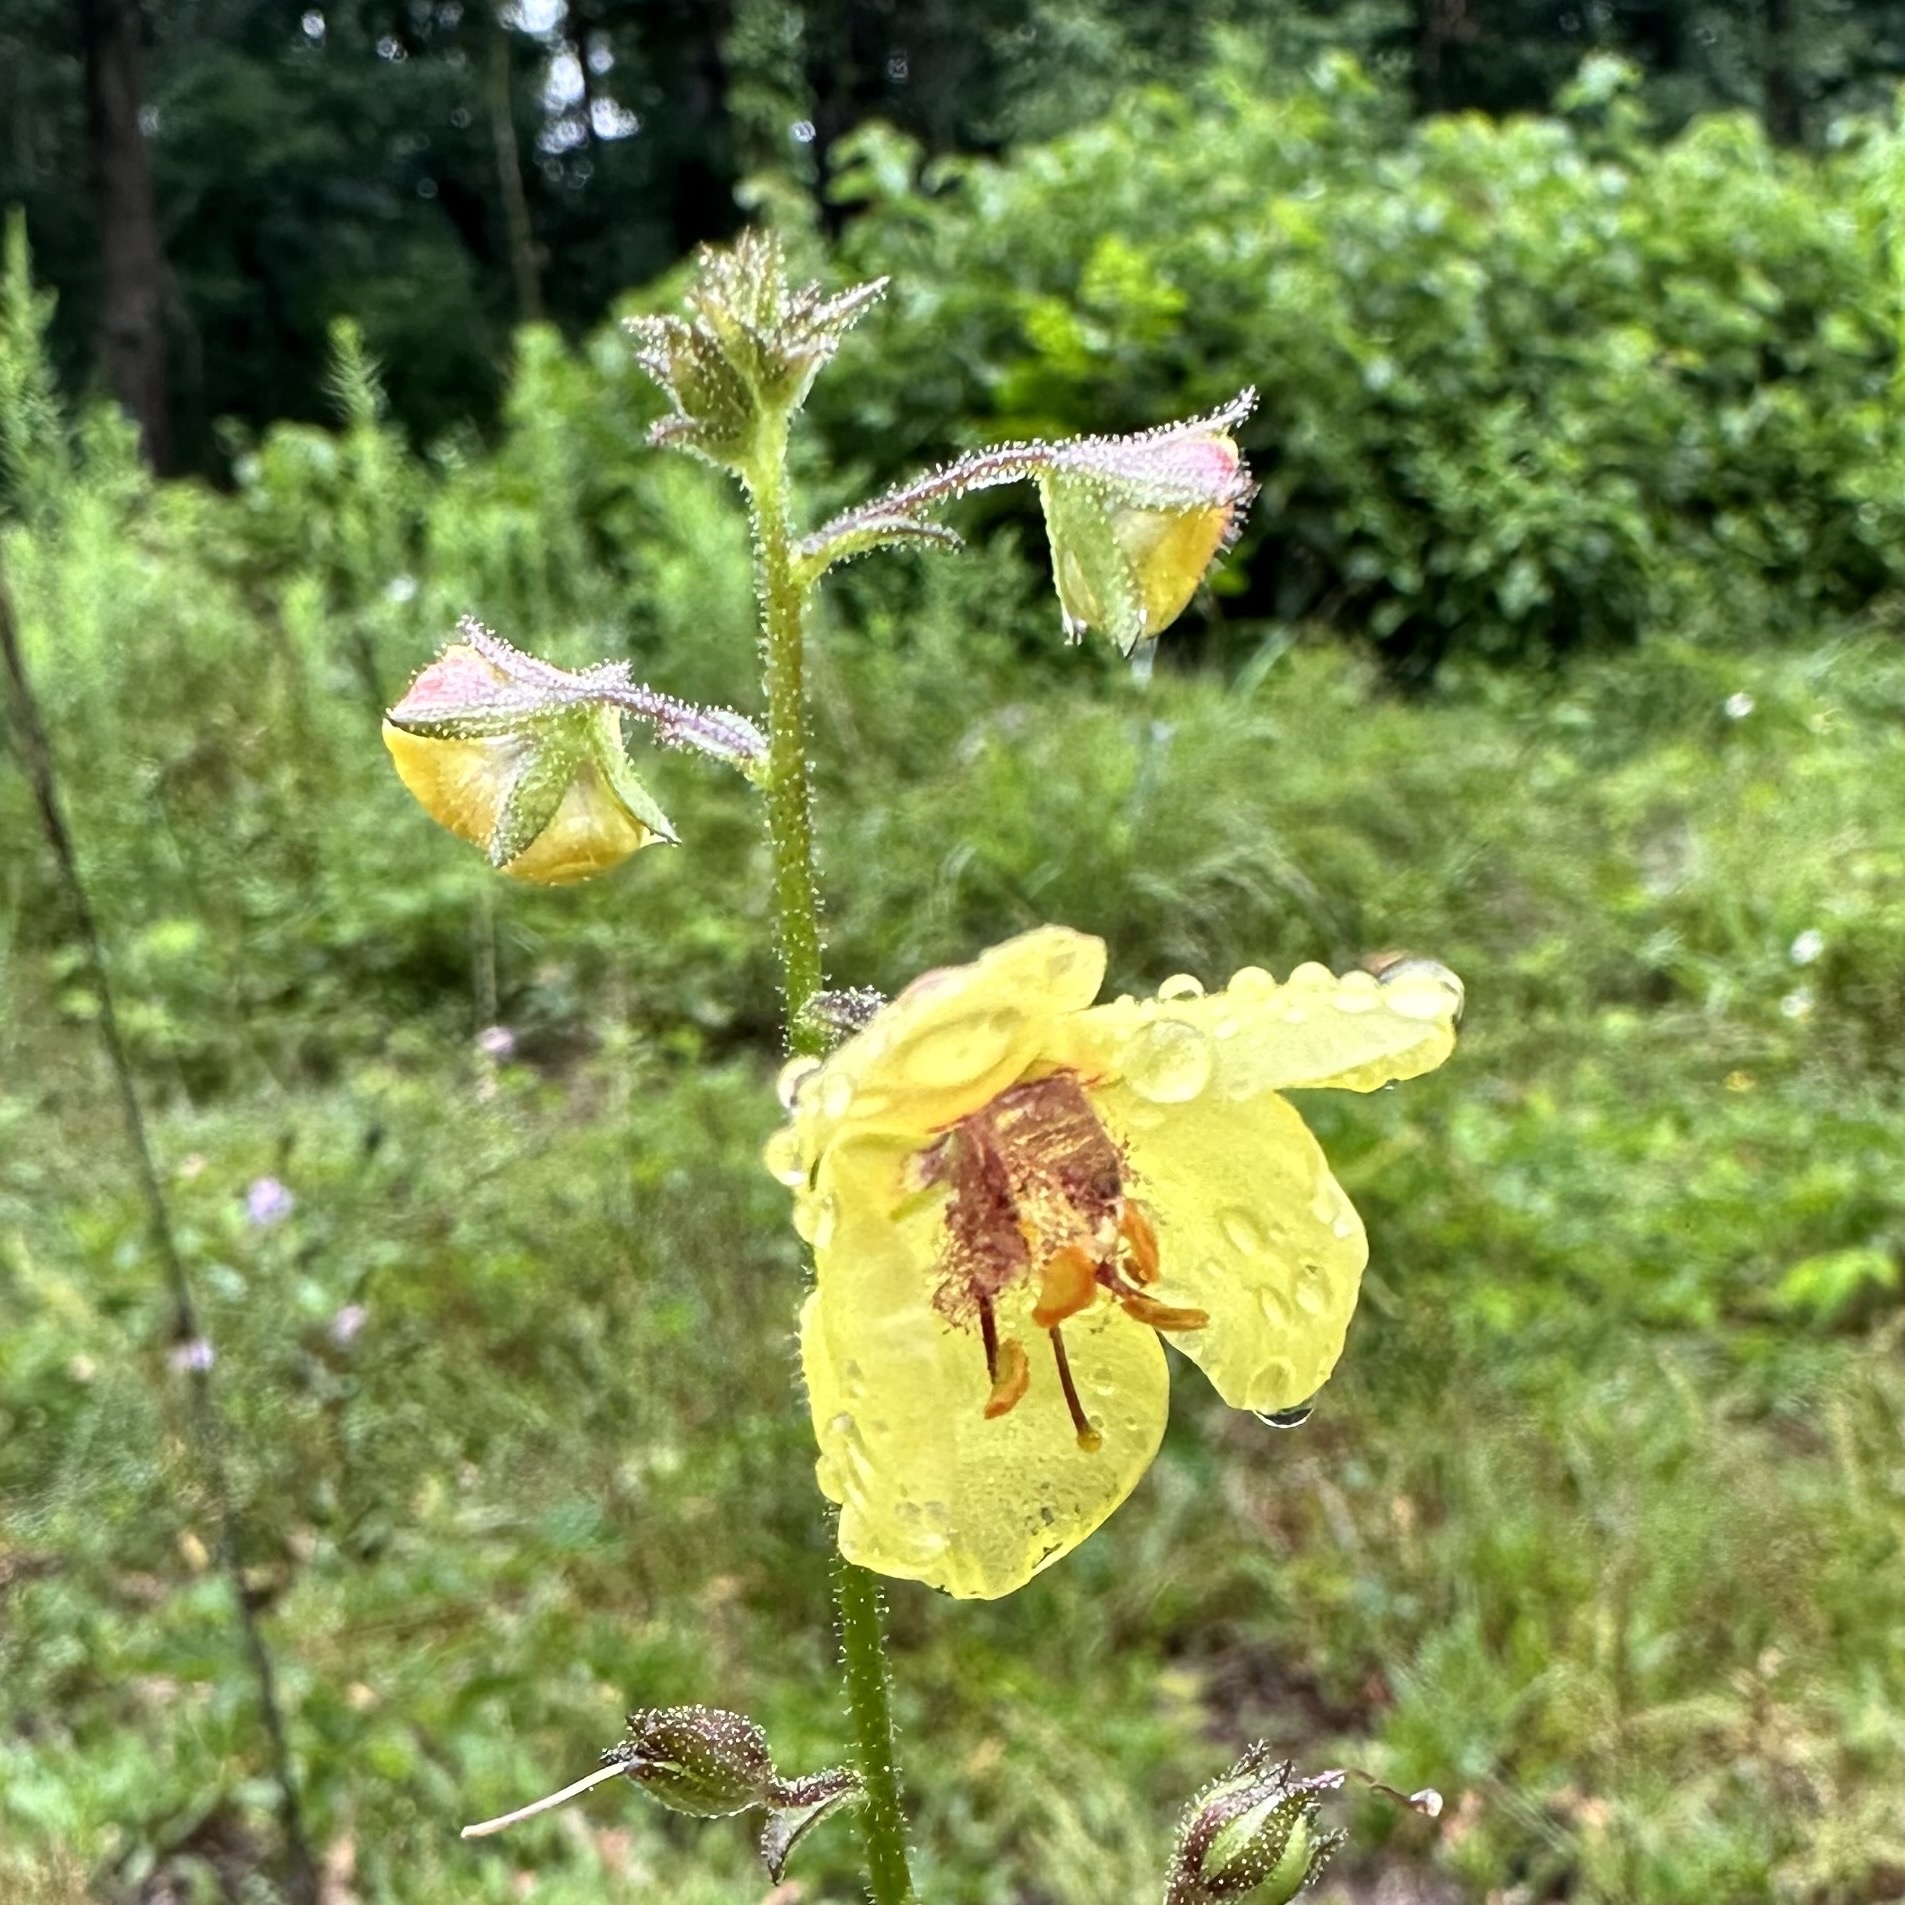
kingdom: Plantae
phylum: Tracheophyta
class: Magnoliopsida
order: Lamiales
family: Scrophulariaceae
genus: Verbascum
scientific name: Verbascum blattaria
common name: Moth mullein
